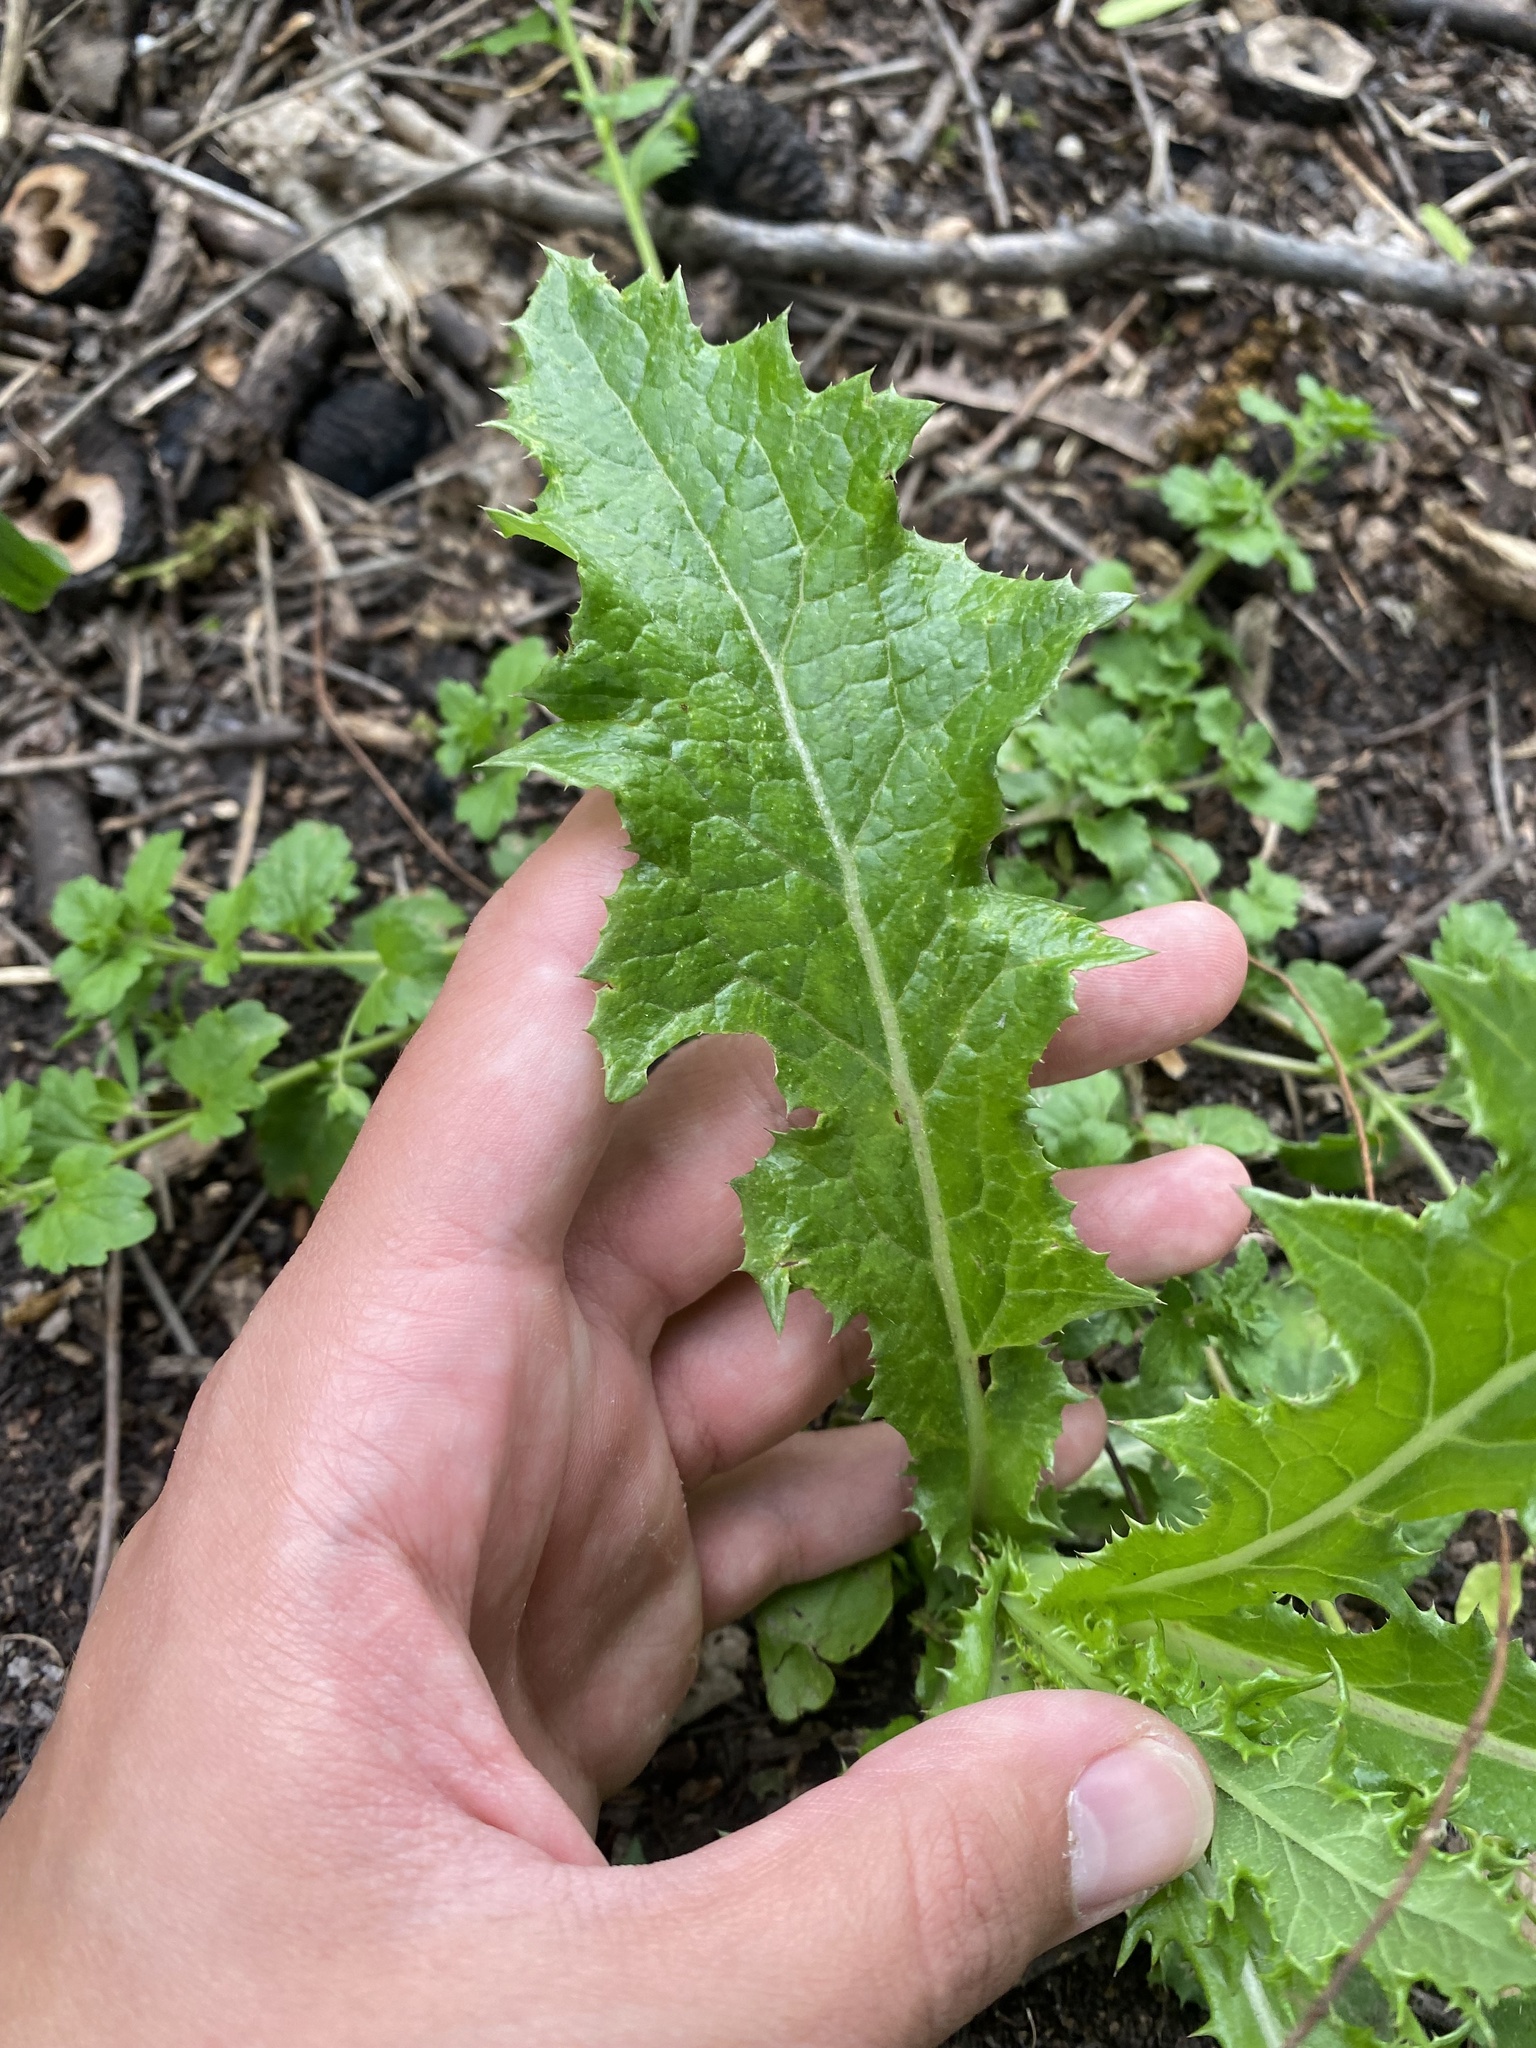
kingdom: Plantae
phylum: Tracheophyta
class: Magnoliopsida
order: Asterales
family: Asteraceae
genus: Sonchus
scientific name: Sonchus asper
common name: Prickly sow-thistle
